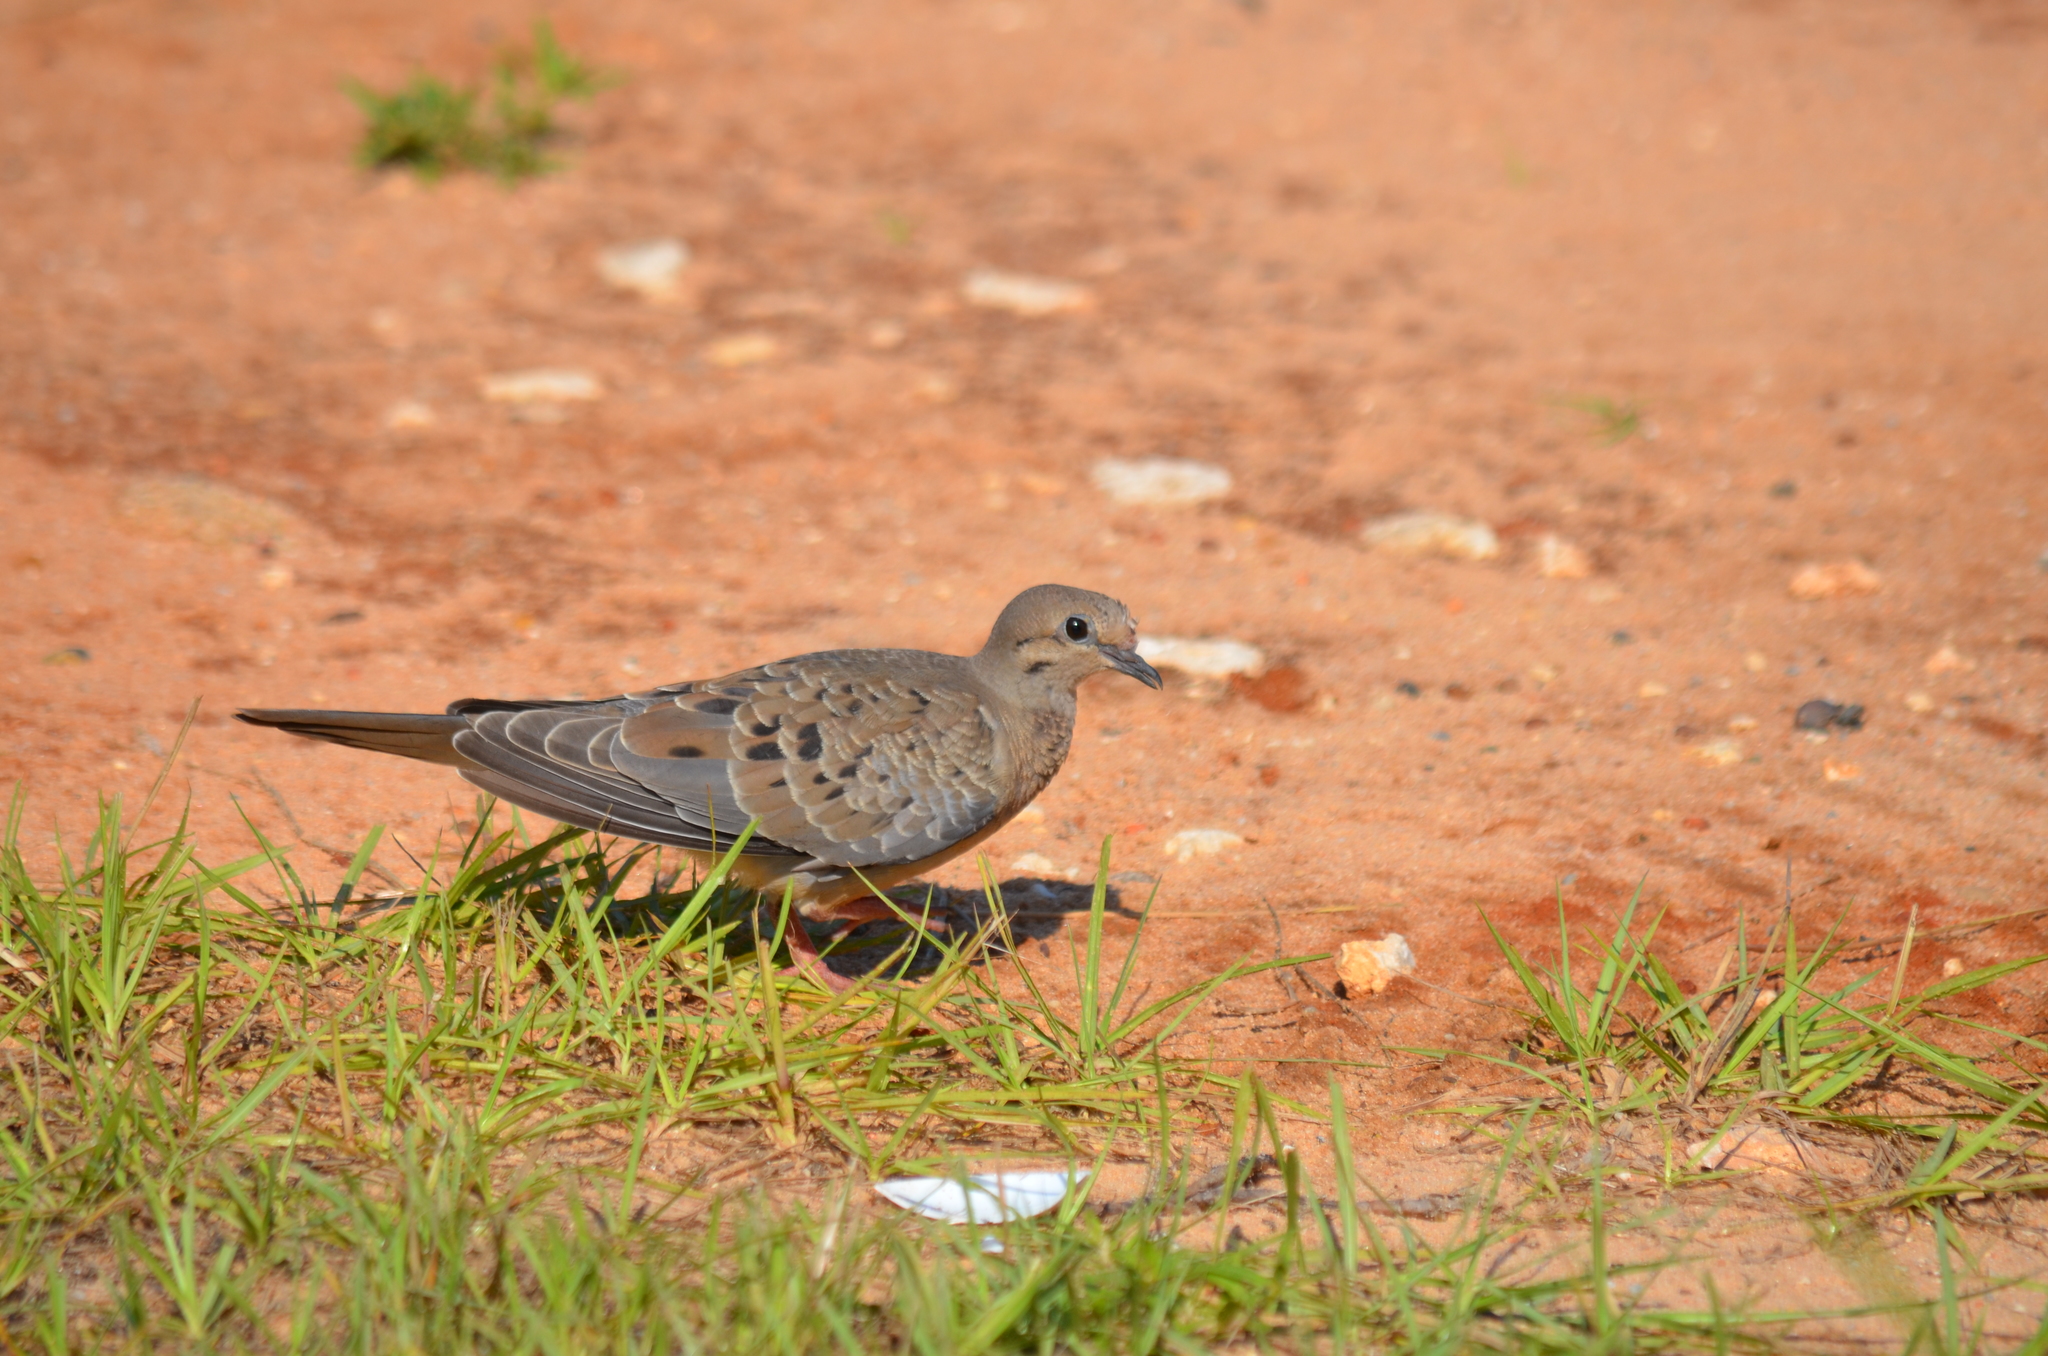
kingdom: Animalia
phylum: Chordata
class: Aves
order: Columbiformes
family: Columbidae
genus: Zenaida
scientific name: Zenaida macroura
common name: Mourning dove
